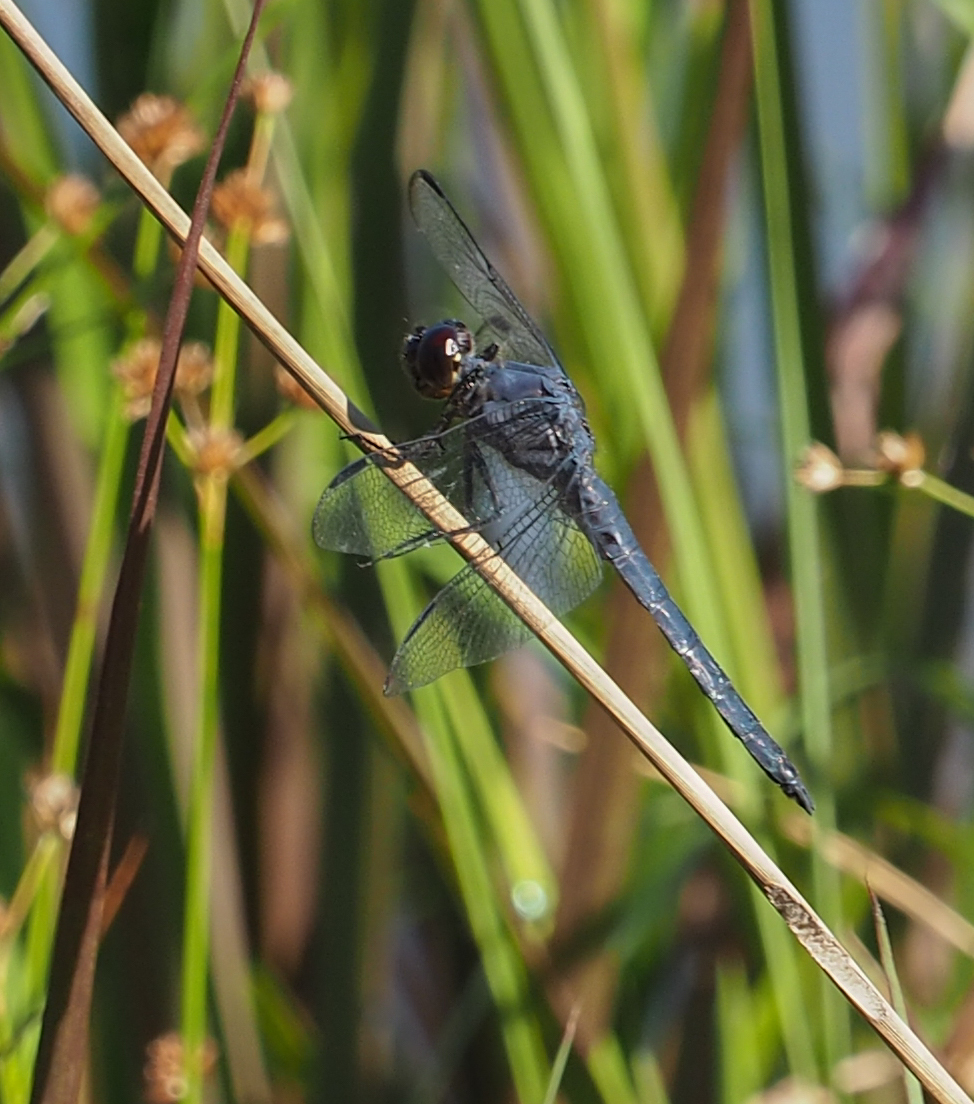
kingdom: Animalia
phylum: Arthropoda
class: Insecta
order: Odonata
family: Libellulidae
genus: Libellula
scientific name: Libellula incesta
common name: Slaty skimmer
